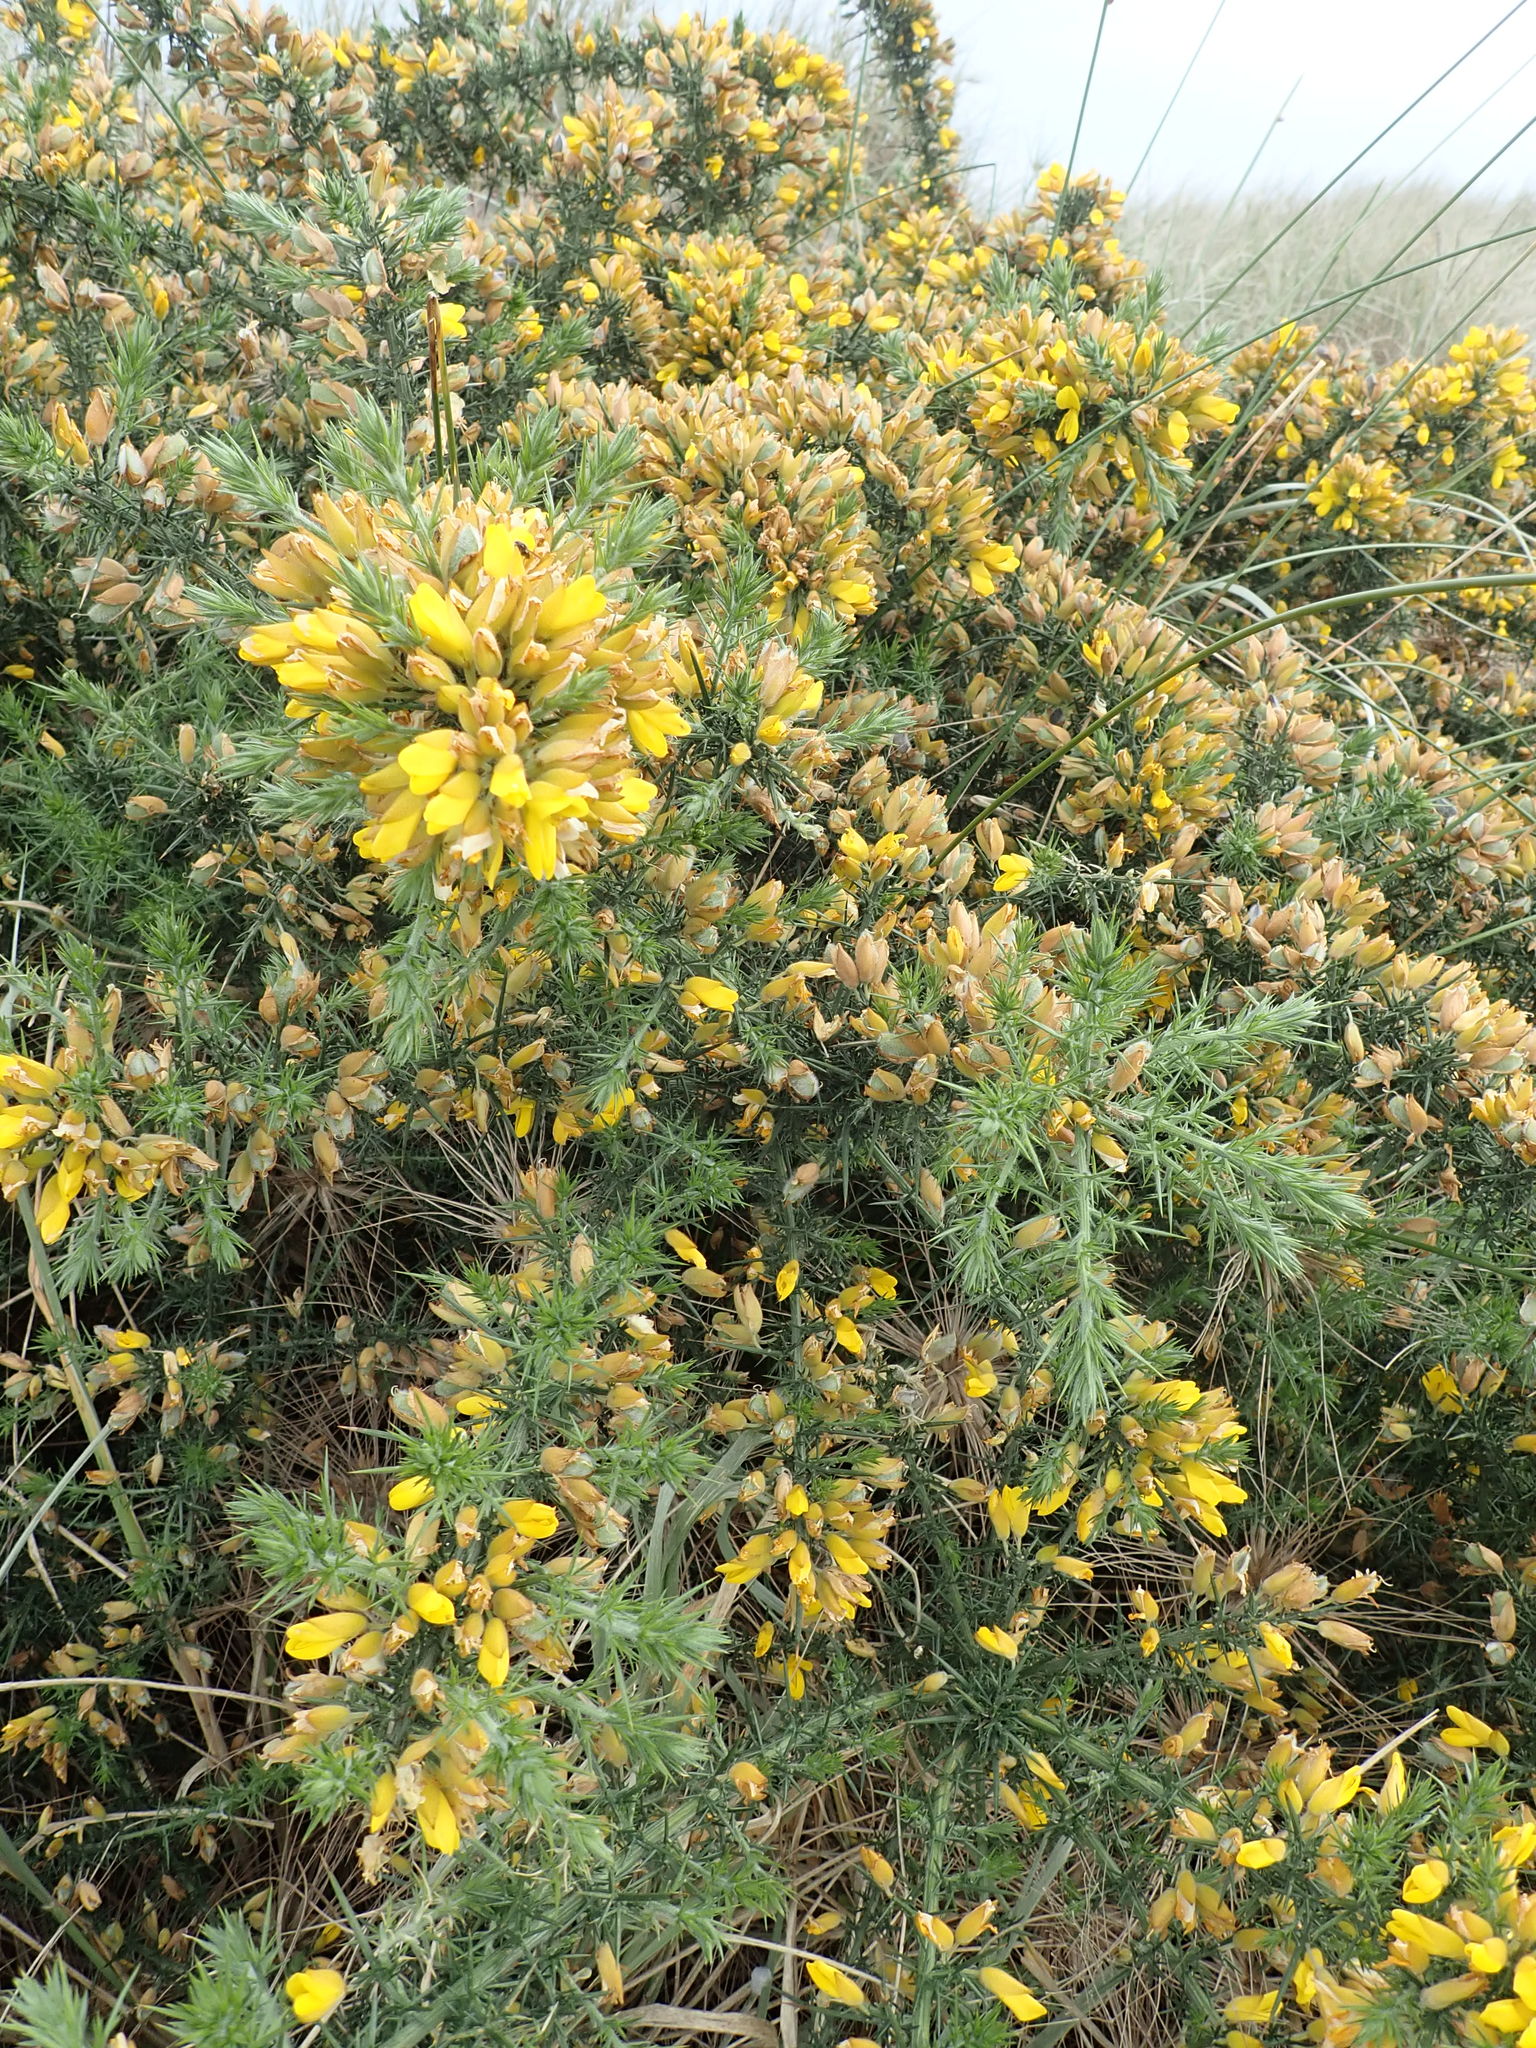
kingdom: Plantae
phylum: Tracheophyta
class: Magnoliopsida
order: Fabales
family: Fabaceae
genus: Ulex
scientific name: Ulex europaeus
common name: Common gorse
